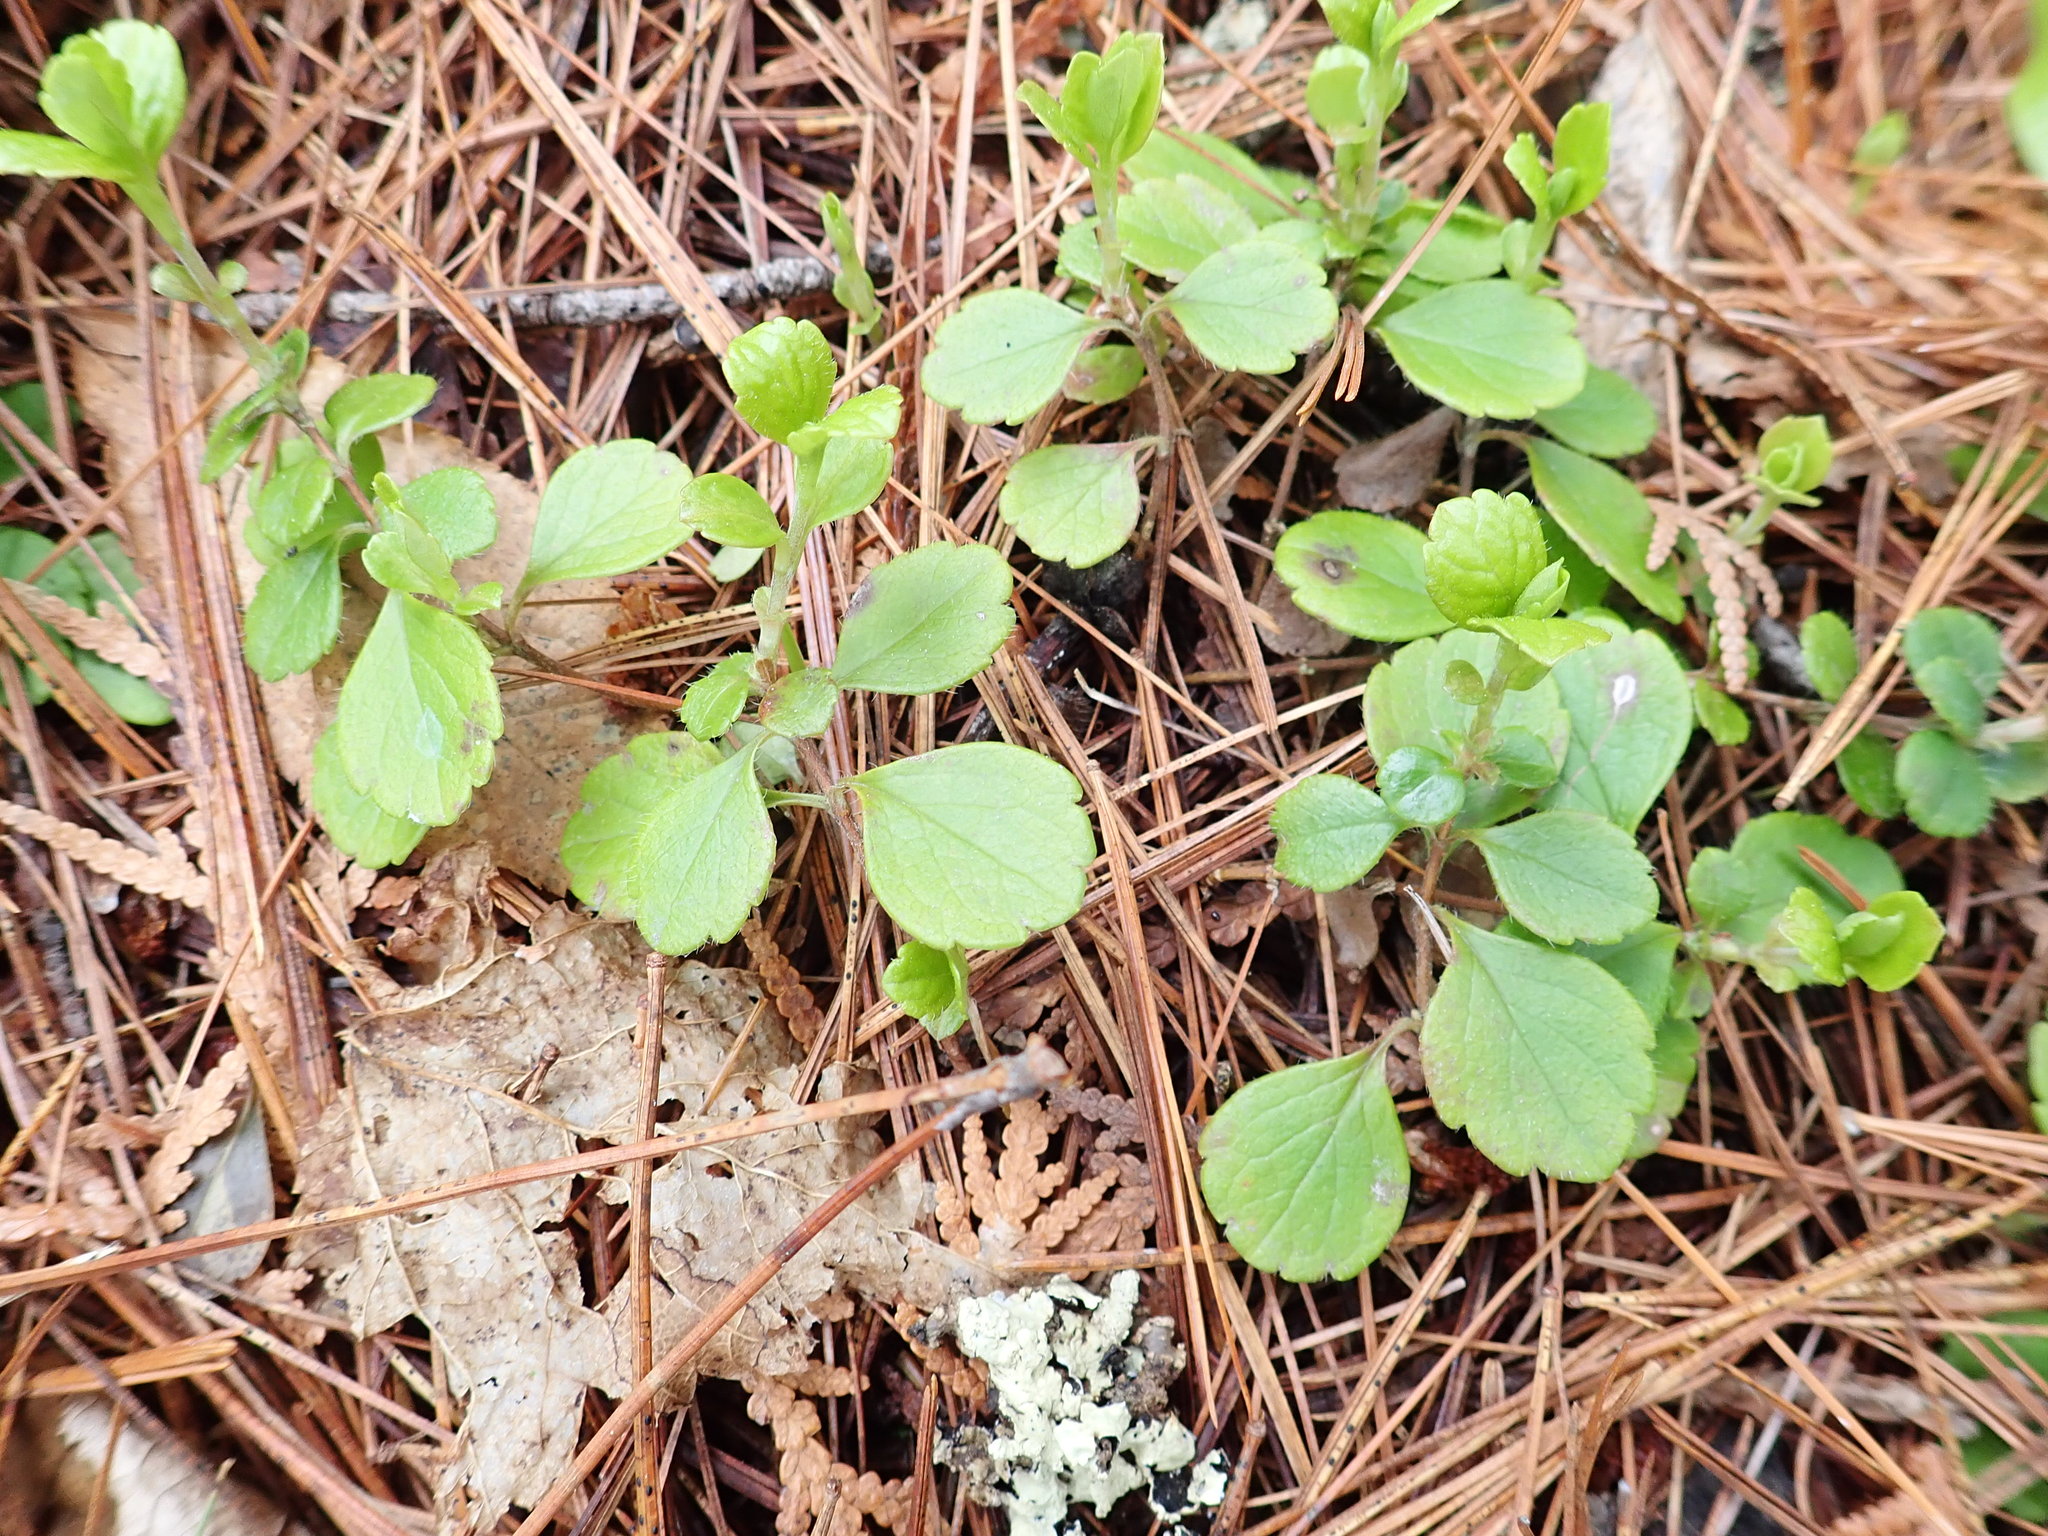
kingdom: Plantae
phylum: Tracheophyta
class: Magnoliopsida
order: Dipsacales
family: Caprifoliaceae
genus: Linnaea
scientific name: Linnaea borealis
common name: Twinflower
